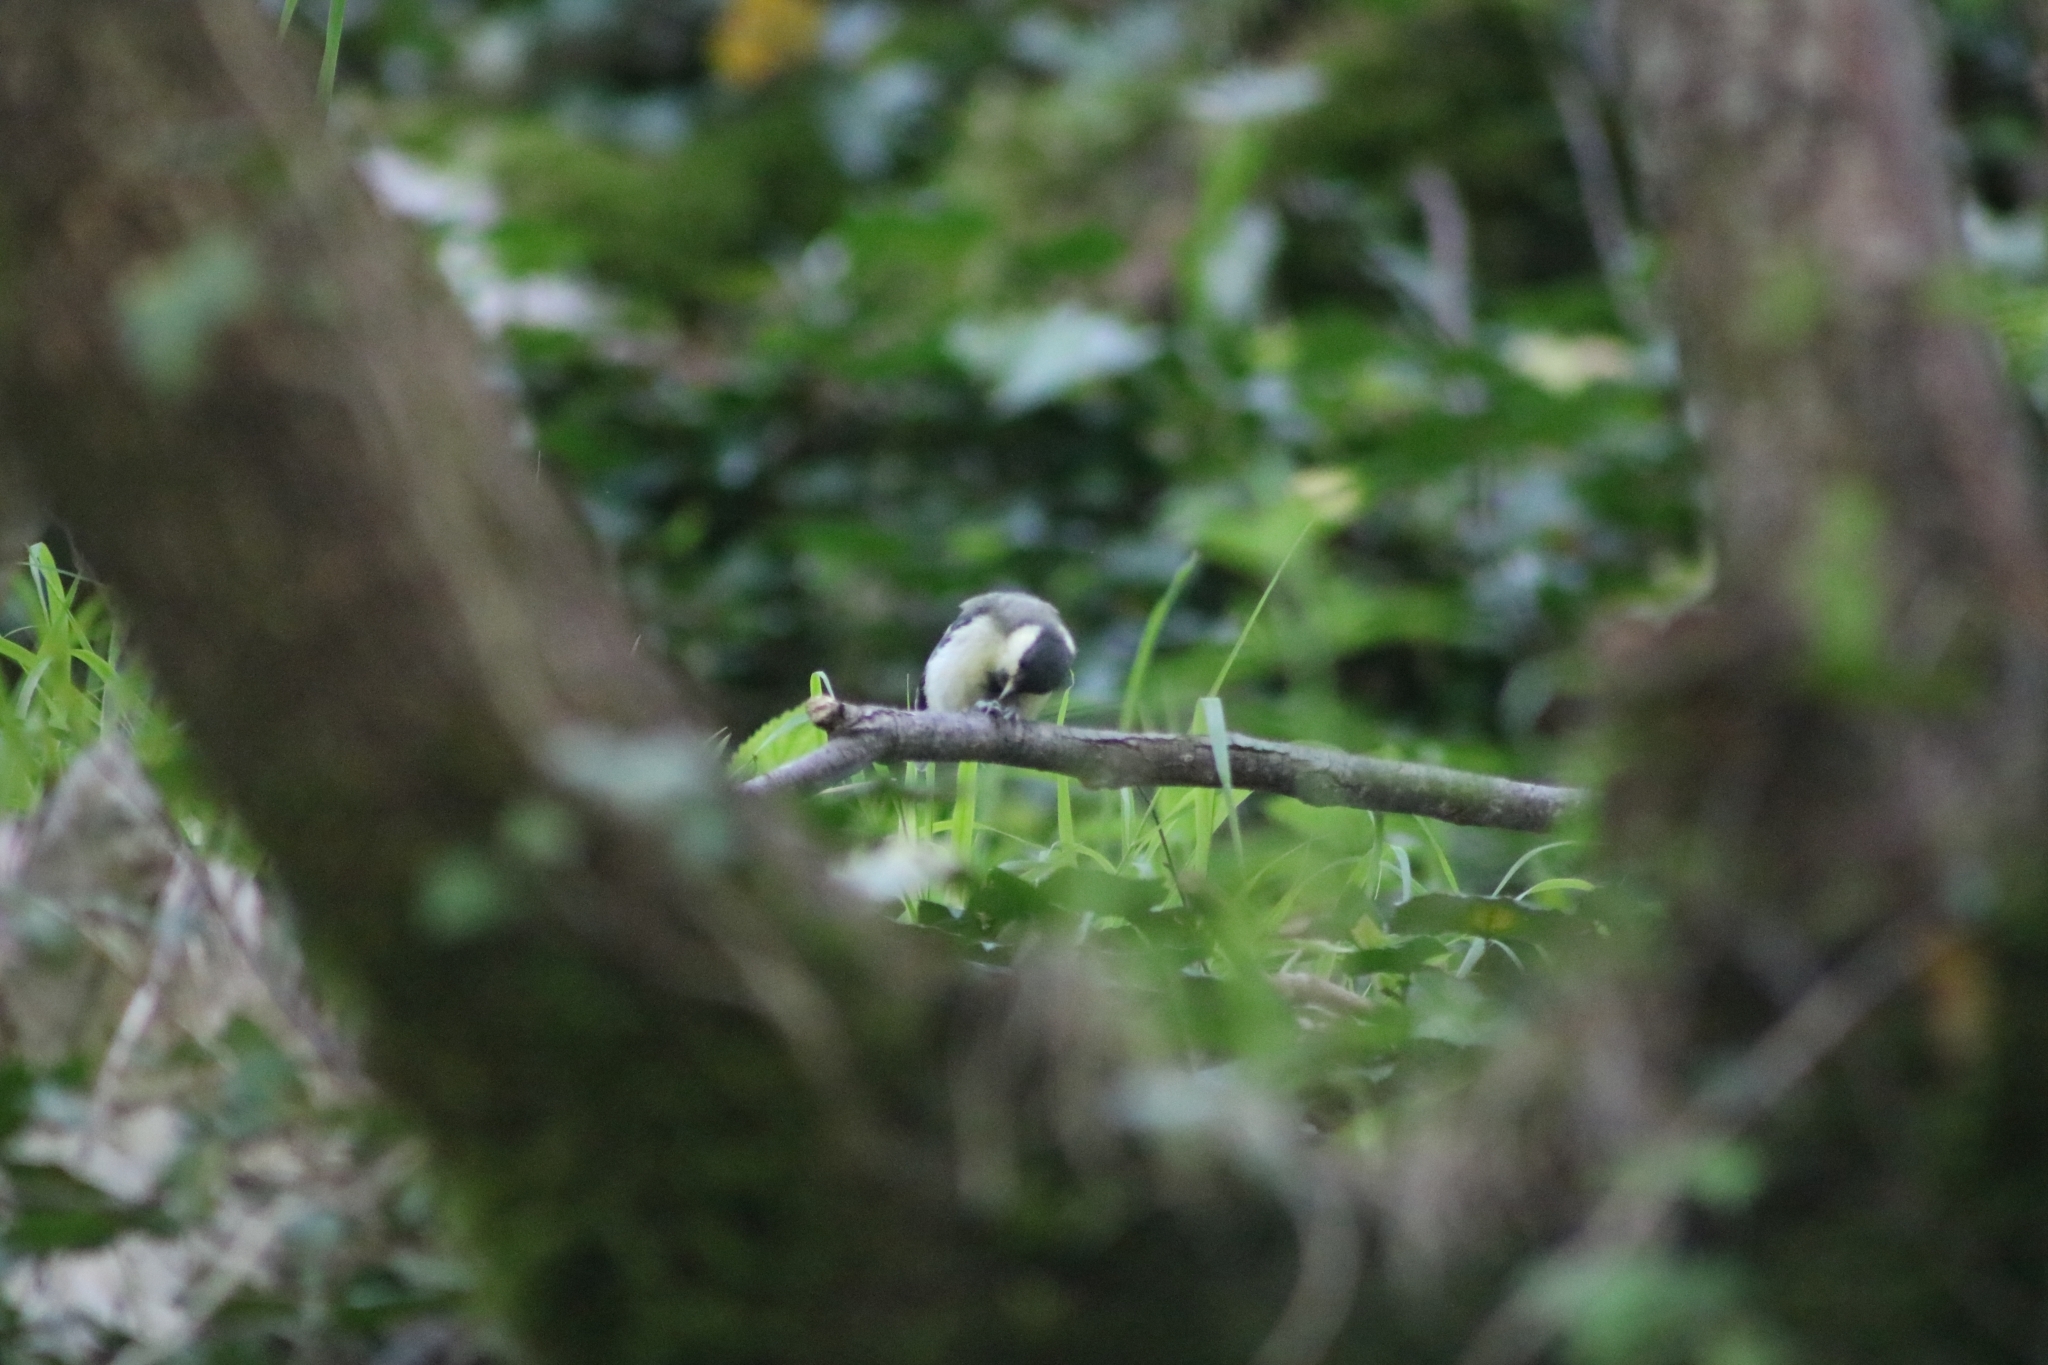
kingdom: Animalia
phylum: Chordata
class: Aves
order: Passeriformes
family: Paridae
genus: Parus
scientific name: Parus major
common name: Great tit
